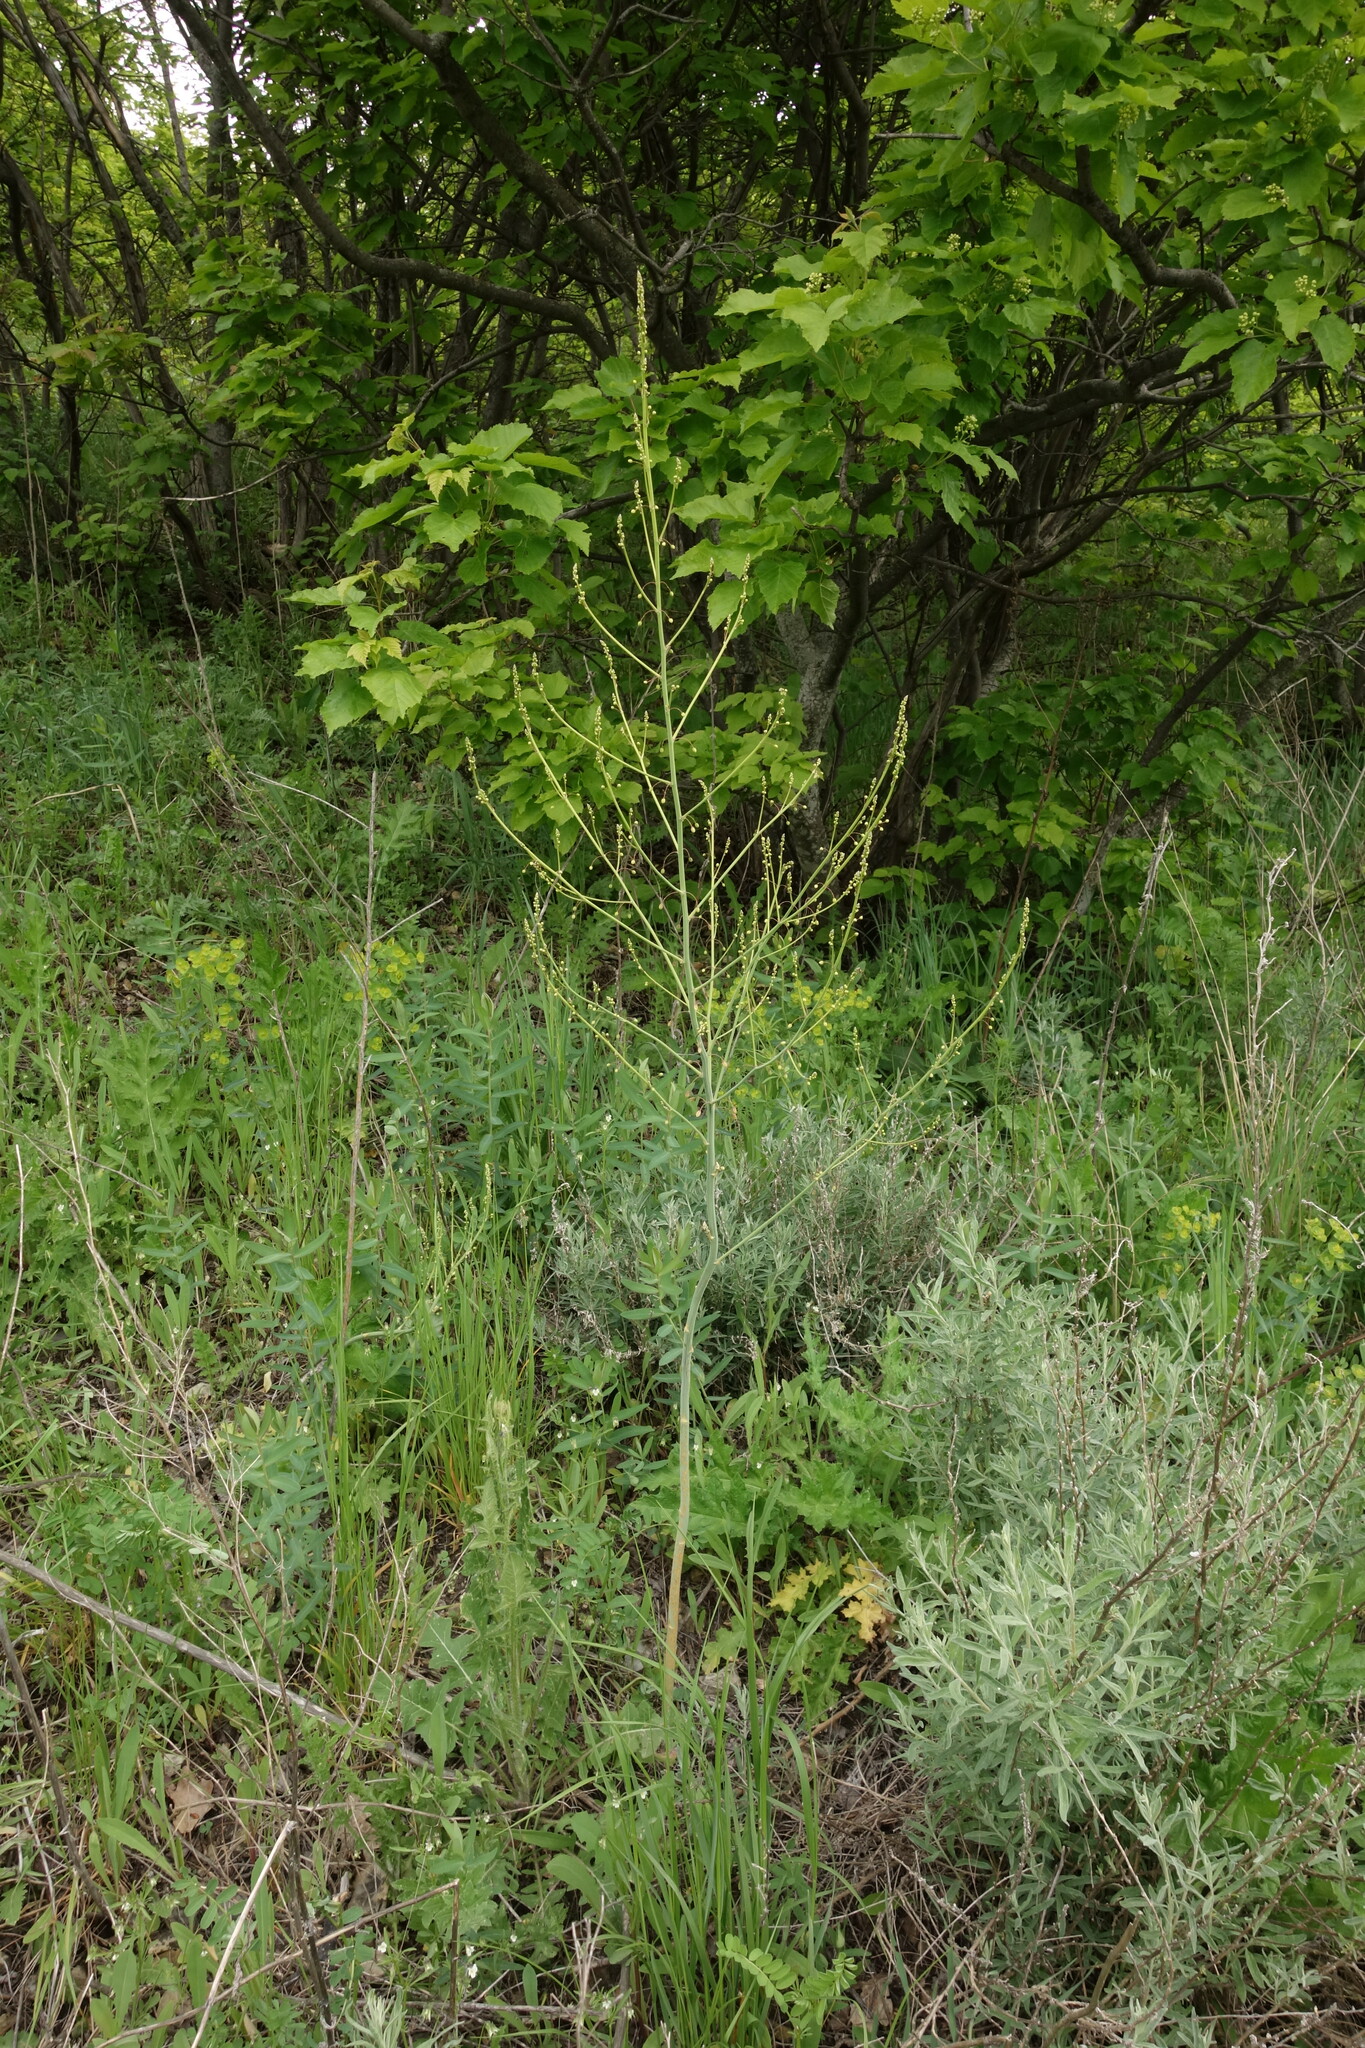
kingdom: Plantae
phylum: Tracheophyta
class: Liliopsida
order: Asparagales
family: Asparagaceae
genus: Asparagus
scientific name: Asparagus officinalis
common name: Garden asparagus
